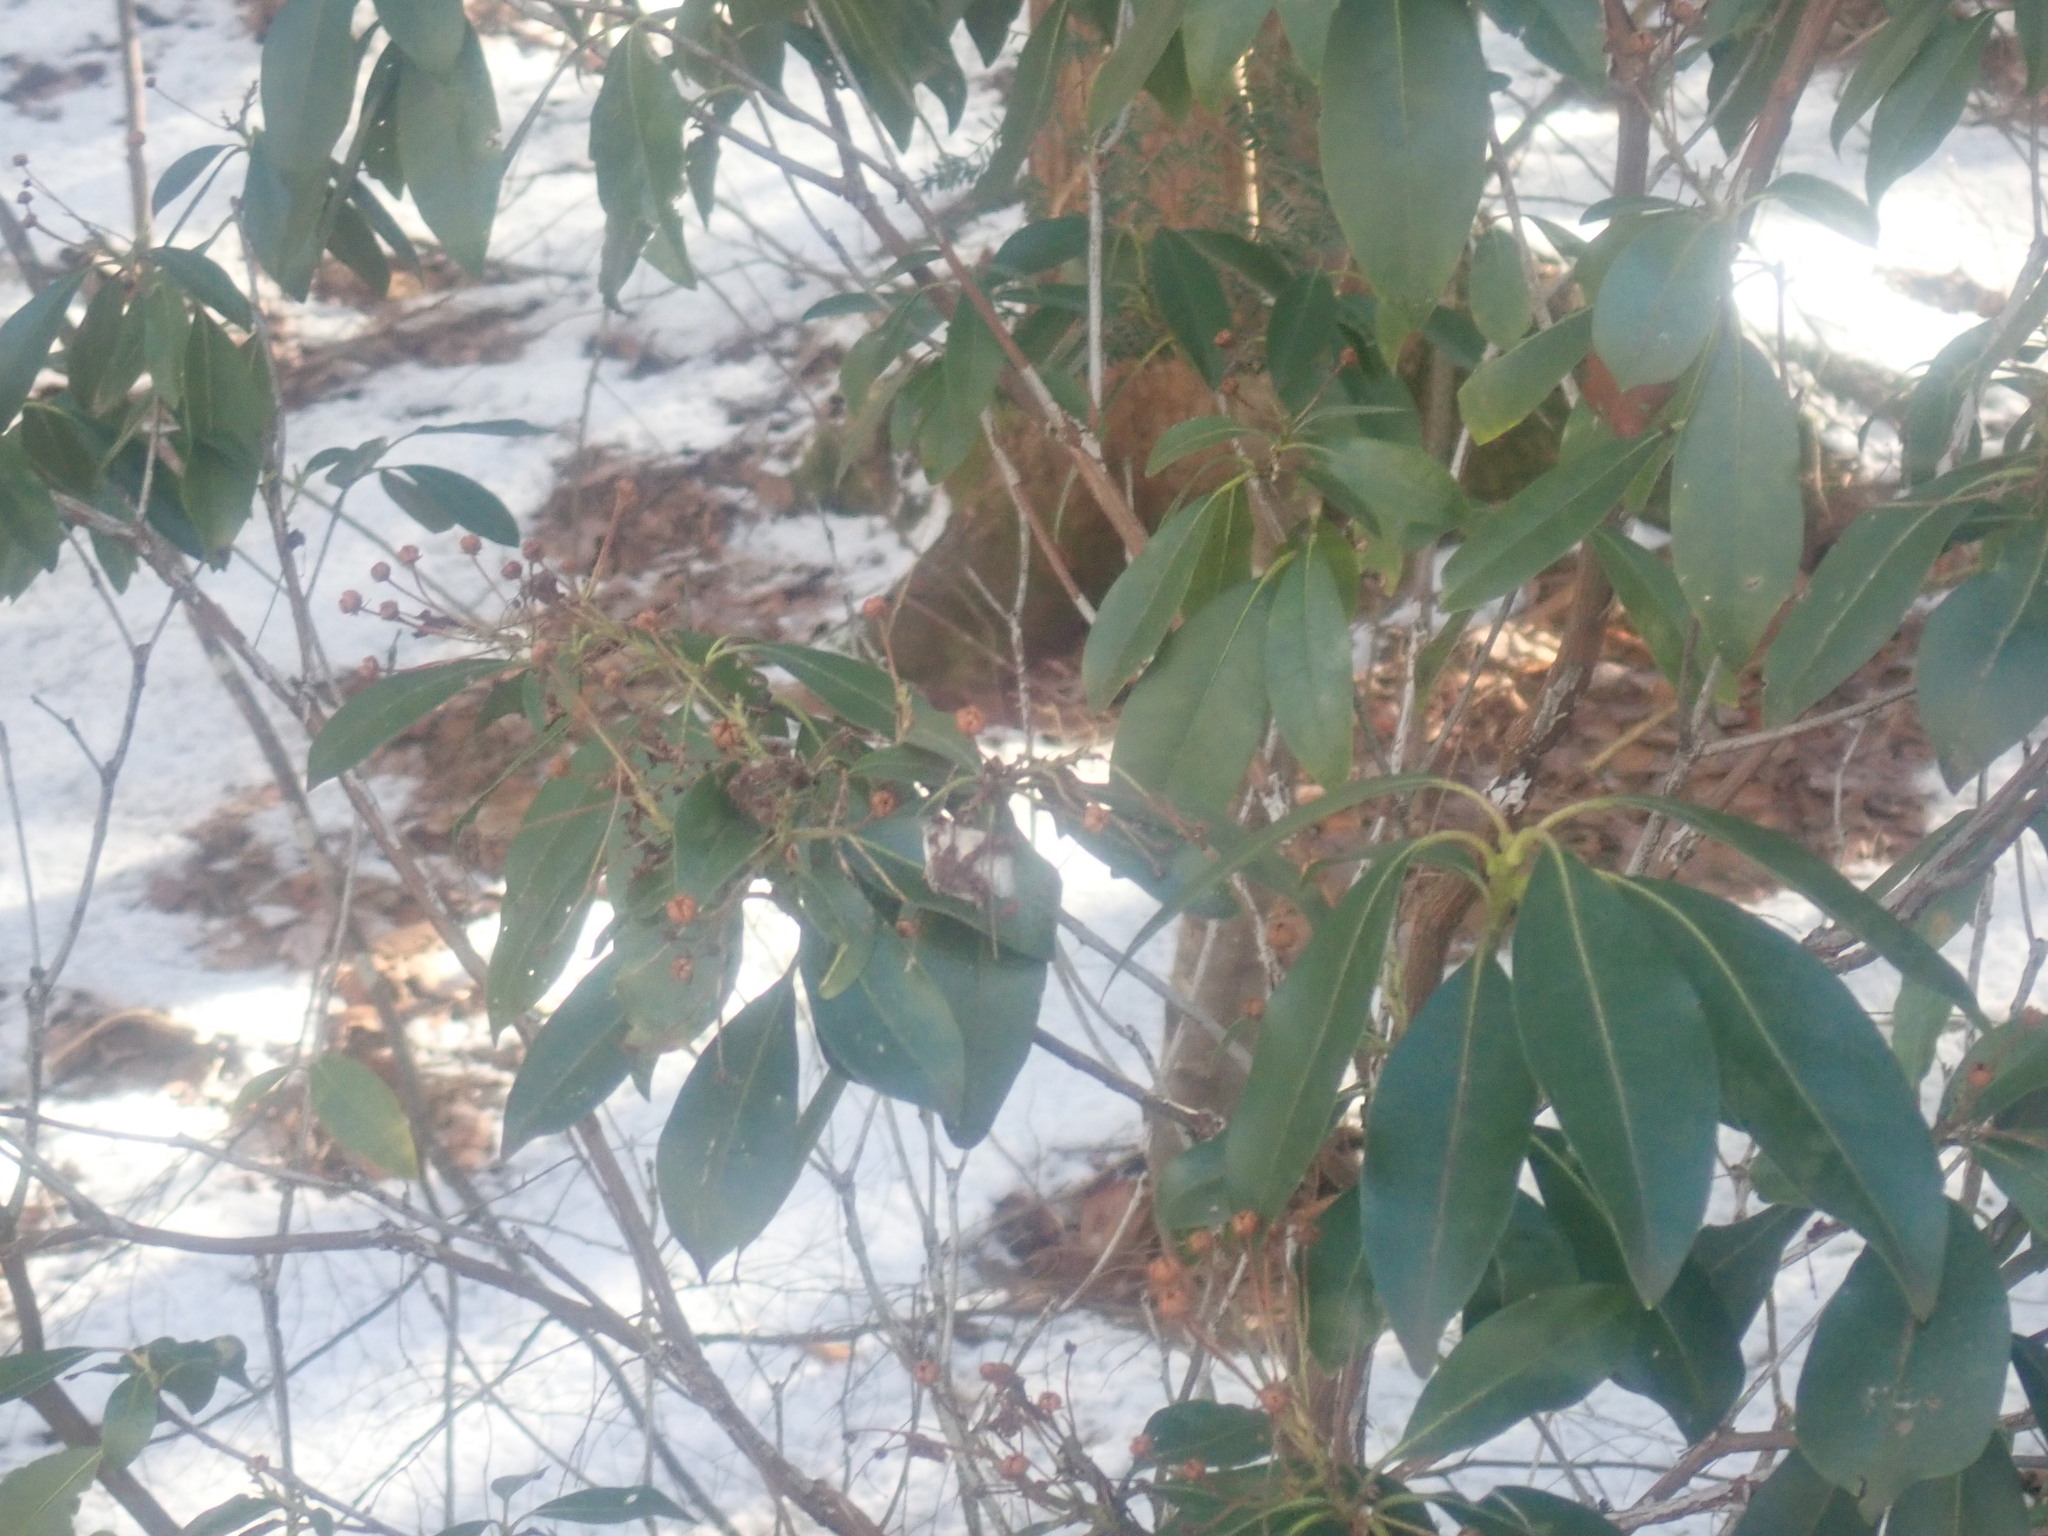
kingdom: Plantae
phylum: Tracheophyta
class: Magnoliopsida
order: Ericales
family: Ericaceae
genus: Kalmia
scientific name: Kalmia latifolia
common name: Mountain-laurel
